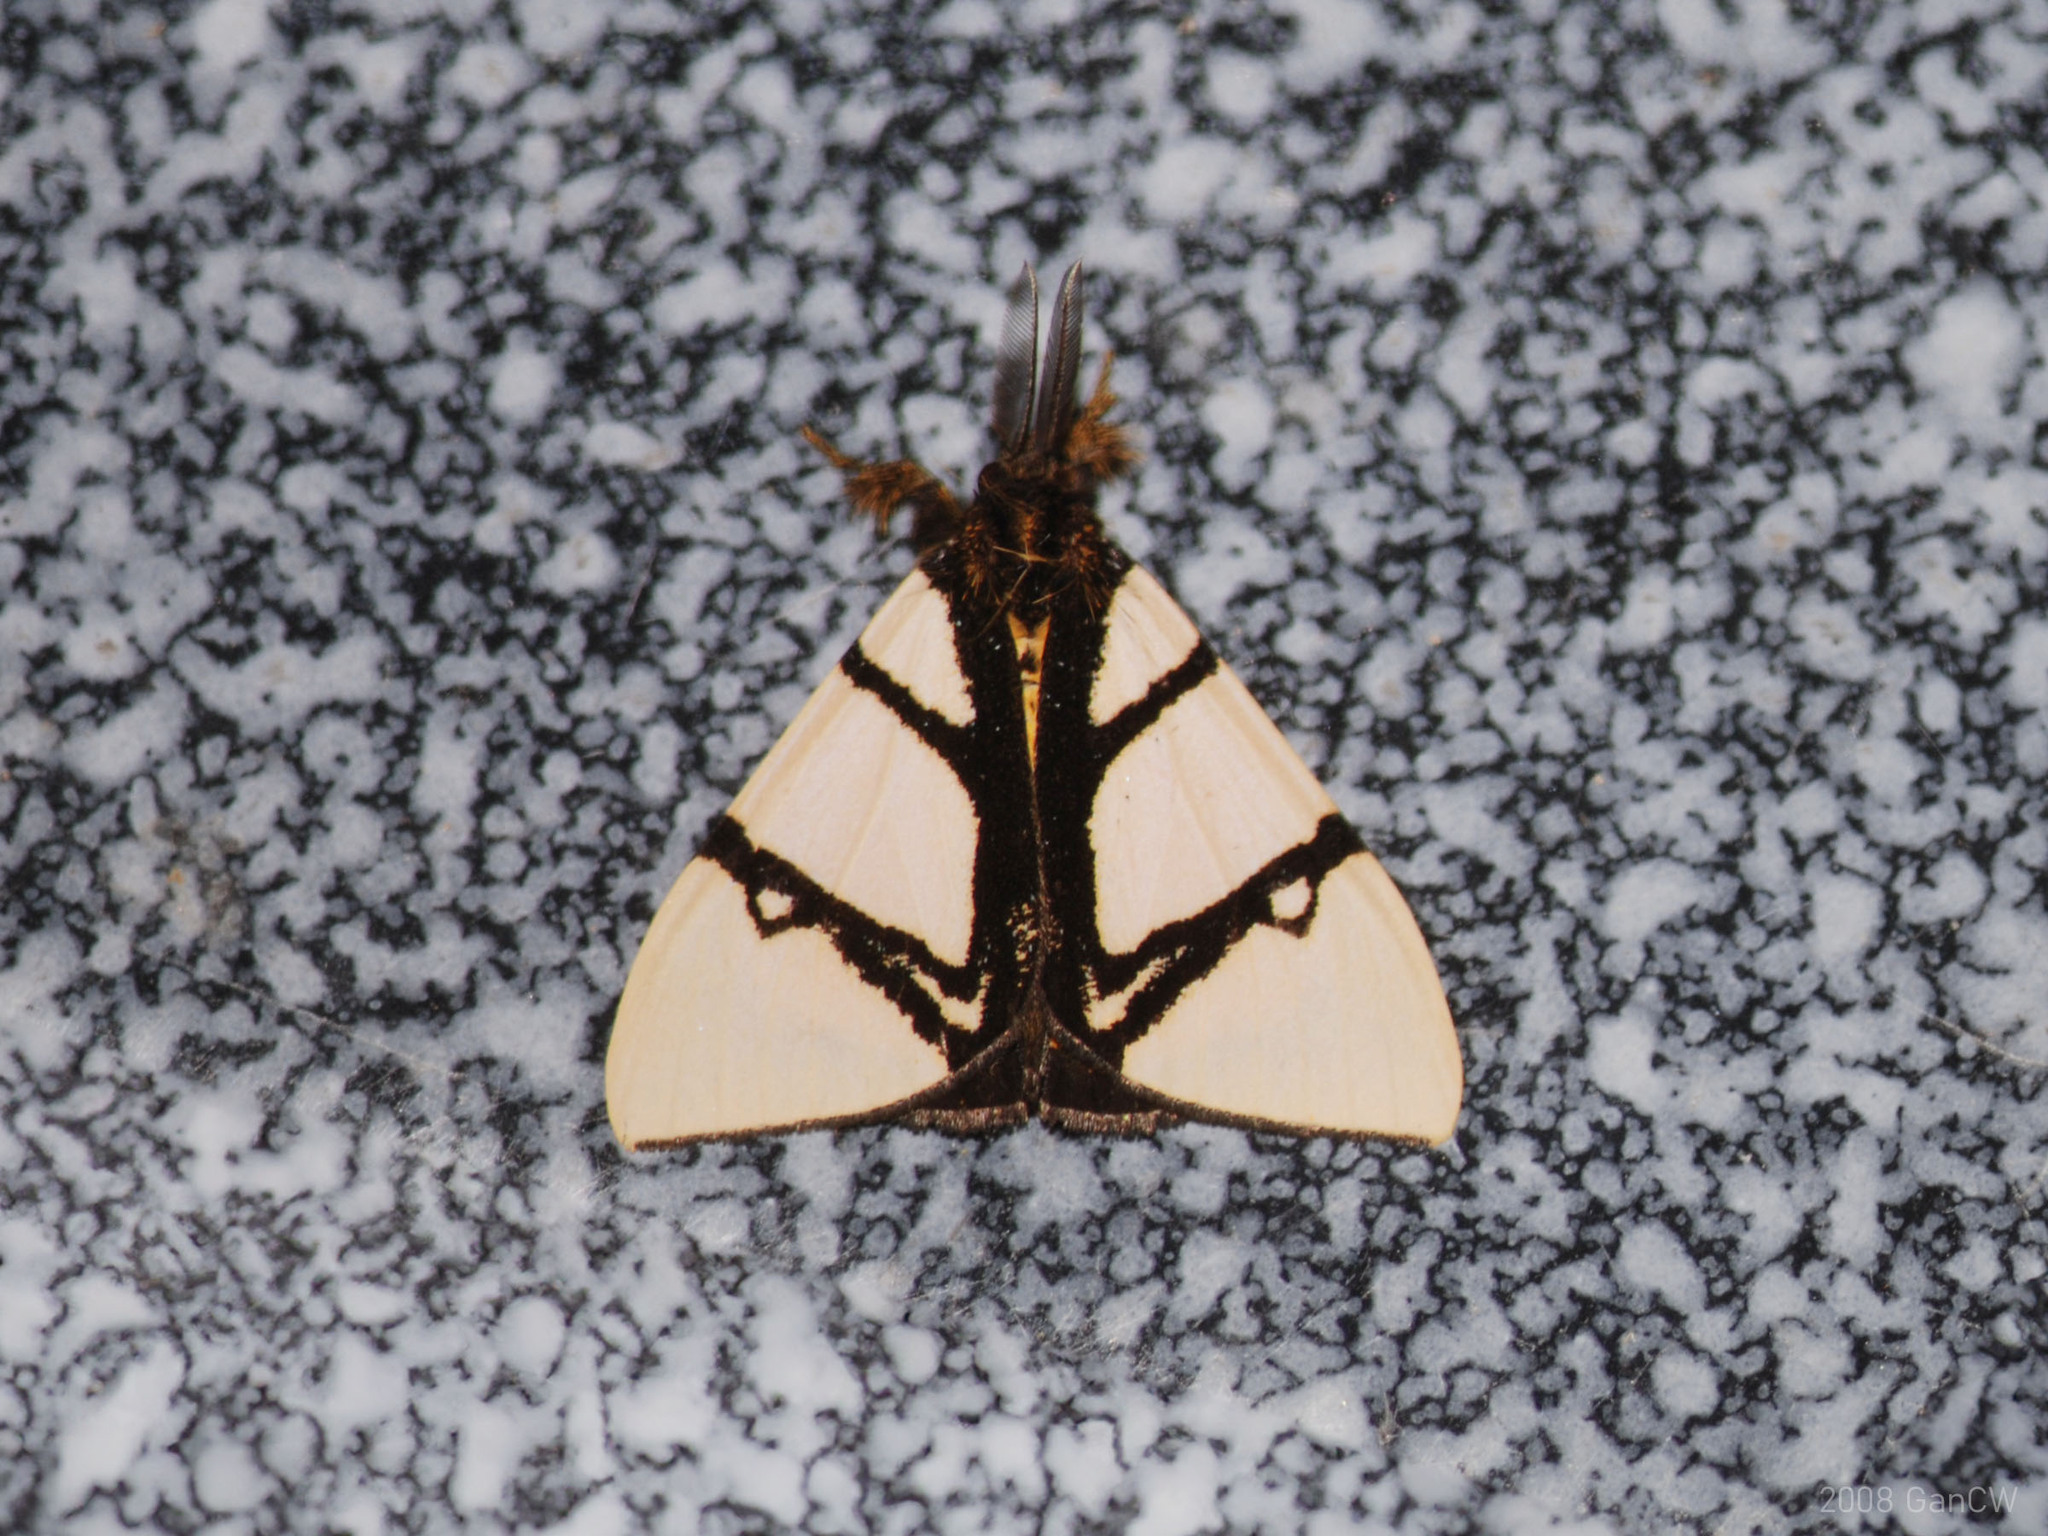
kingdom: Animalia
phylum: Arthropoda
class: Insecta
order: Lepidoptera
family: Erebidae
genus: Numenes
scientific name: Numenes contrahens
